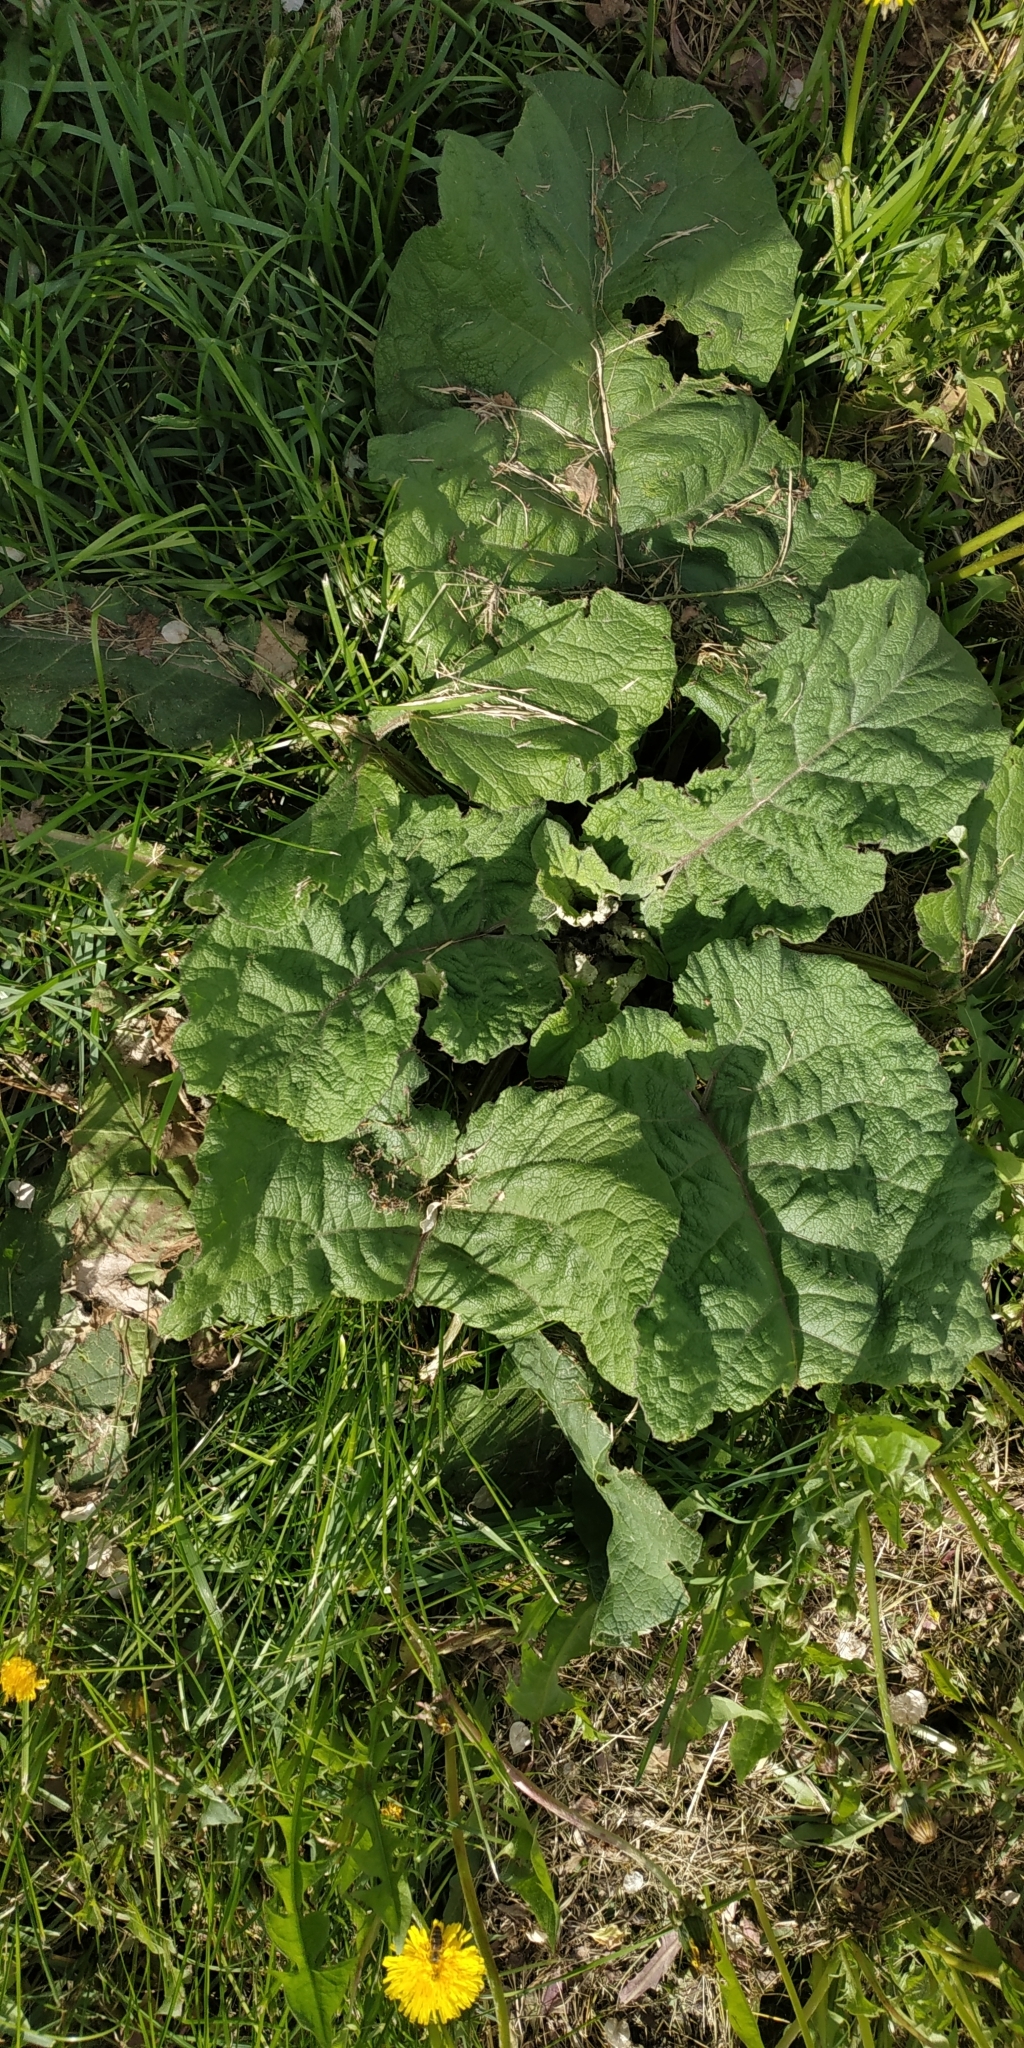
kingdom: Plantae
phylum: Tracheophyta
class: Magnoliopsida
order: Asterales
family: Asteraceae
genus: Arctium
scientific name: Arctium tomentosum
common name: Woolly burdock
